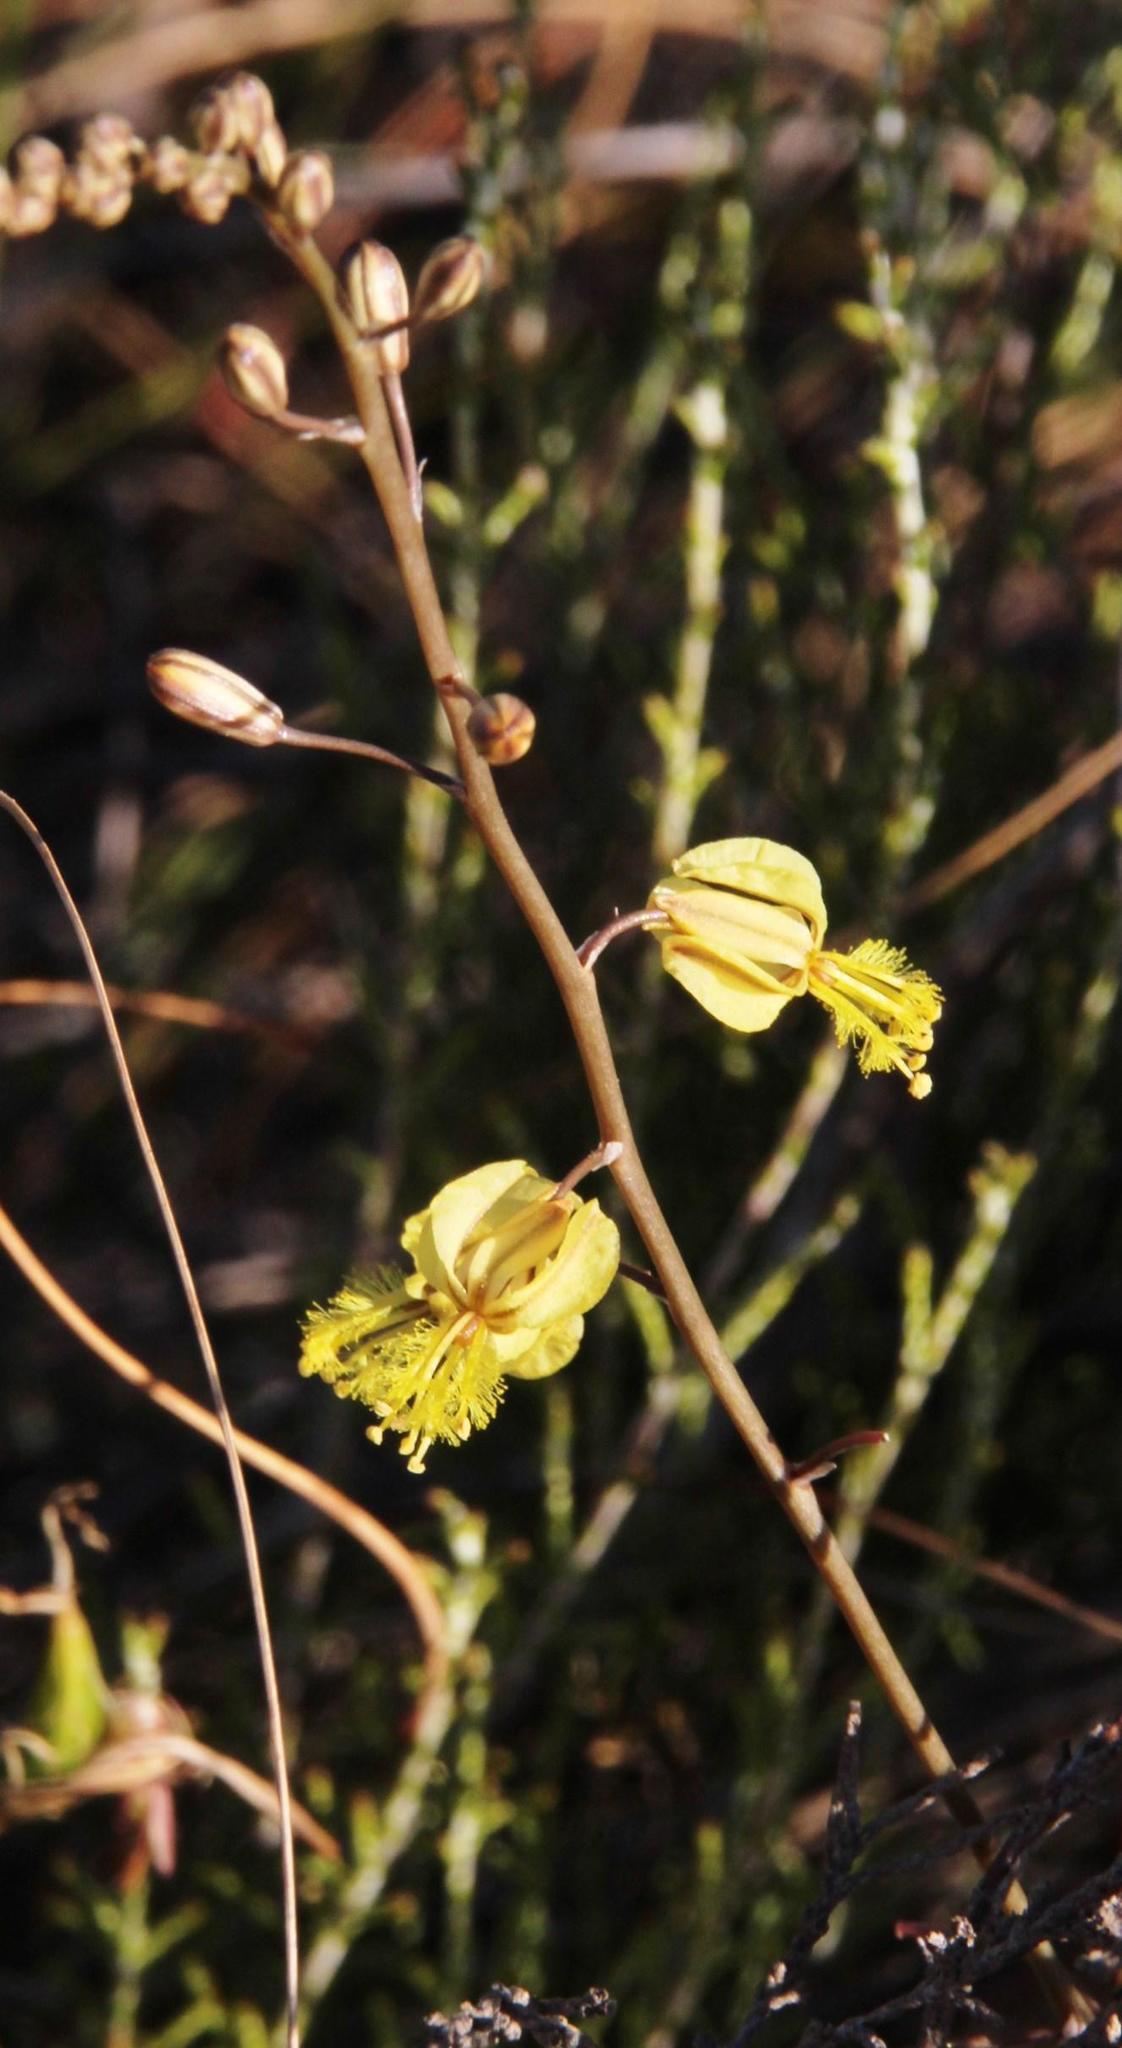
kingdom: Plantae
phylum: Tracheophyta
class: Liliopsida
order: Asparagales
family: Asphodelaceae
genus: Bulbine
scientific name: Bulbine favosa
